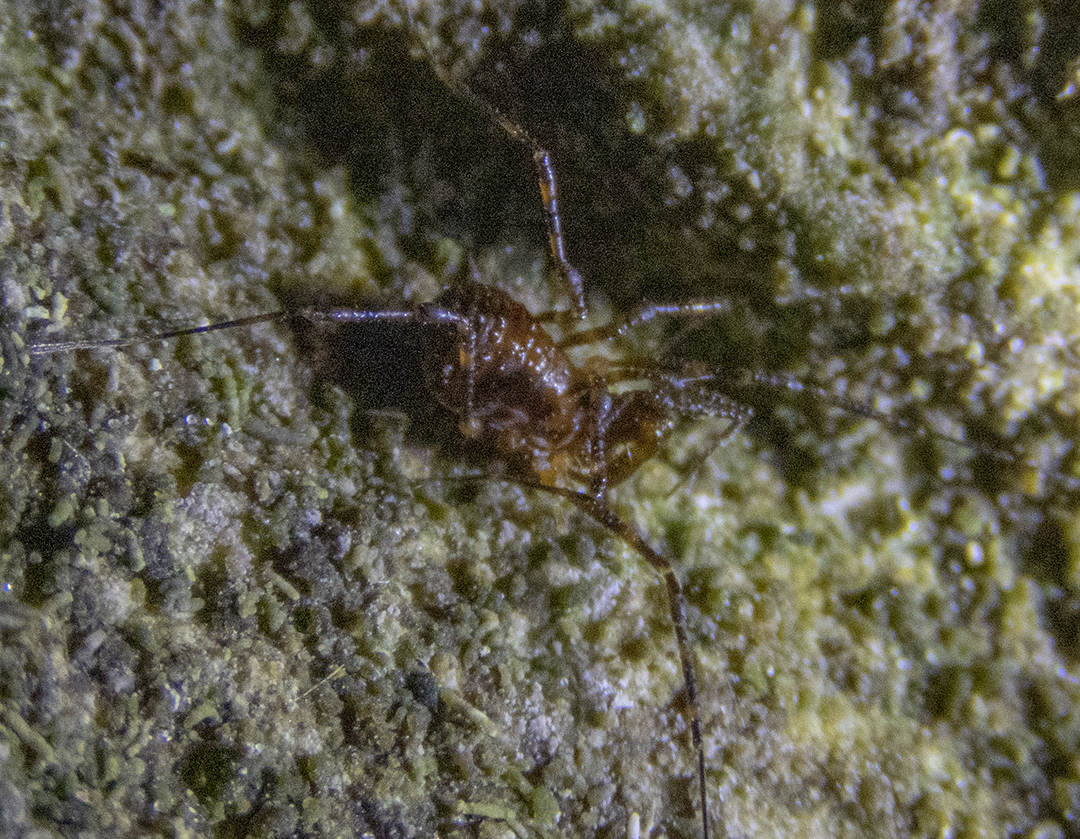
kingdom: Animalia
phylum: Arthropoda
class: Arachnida
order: Opiliones
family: Triaenonychidae
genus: Hendea
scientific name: Hendea myersi
